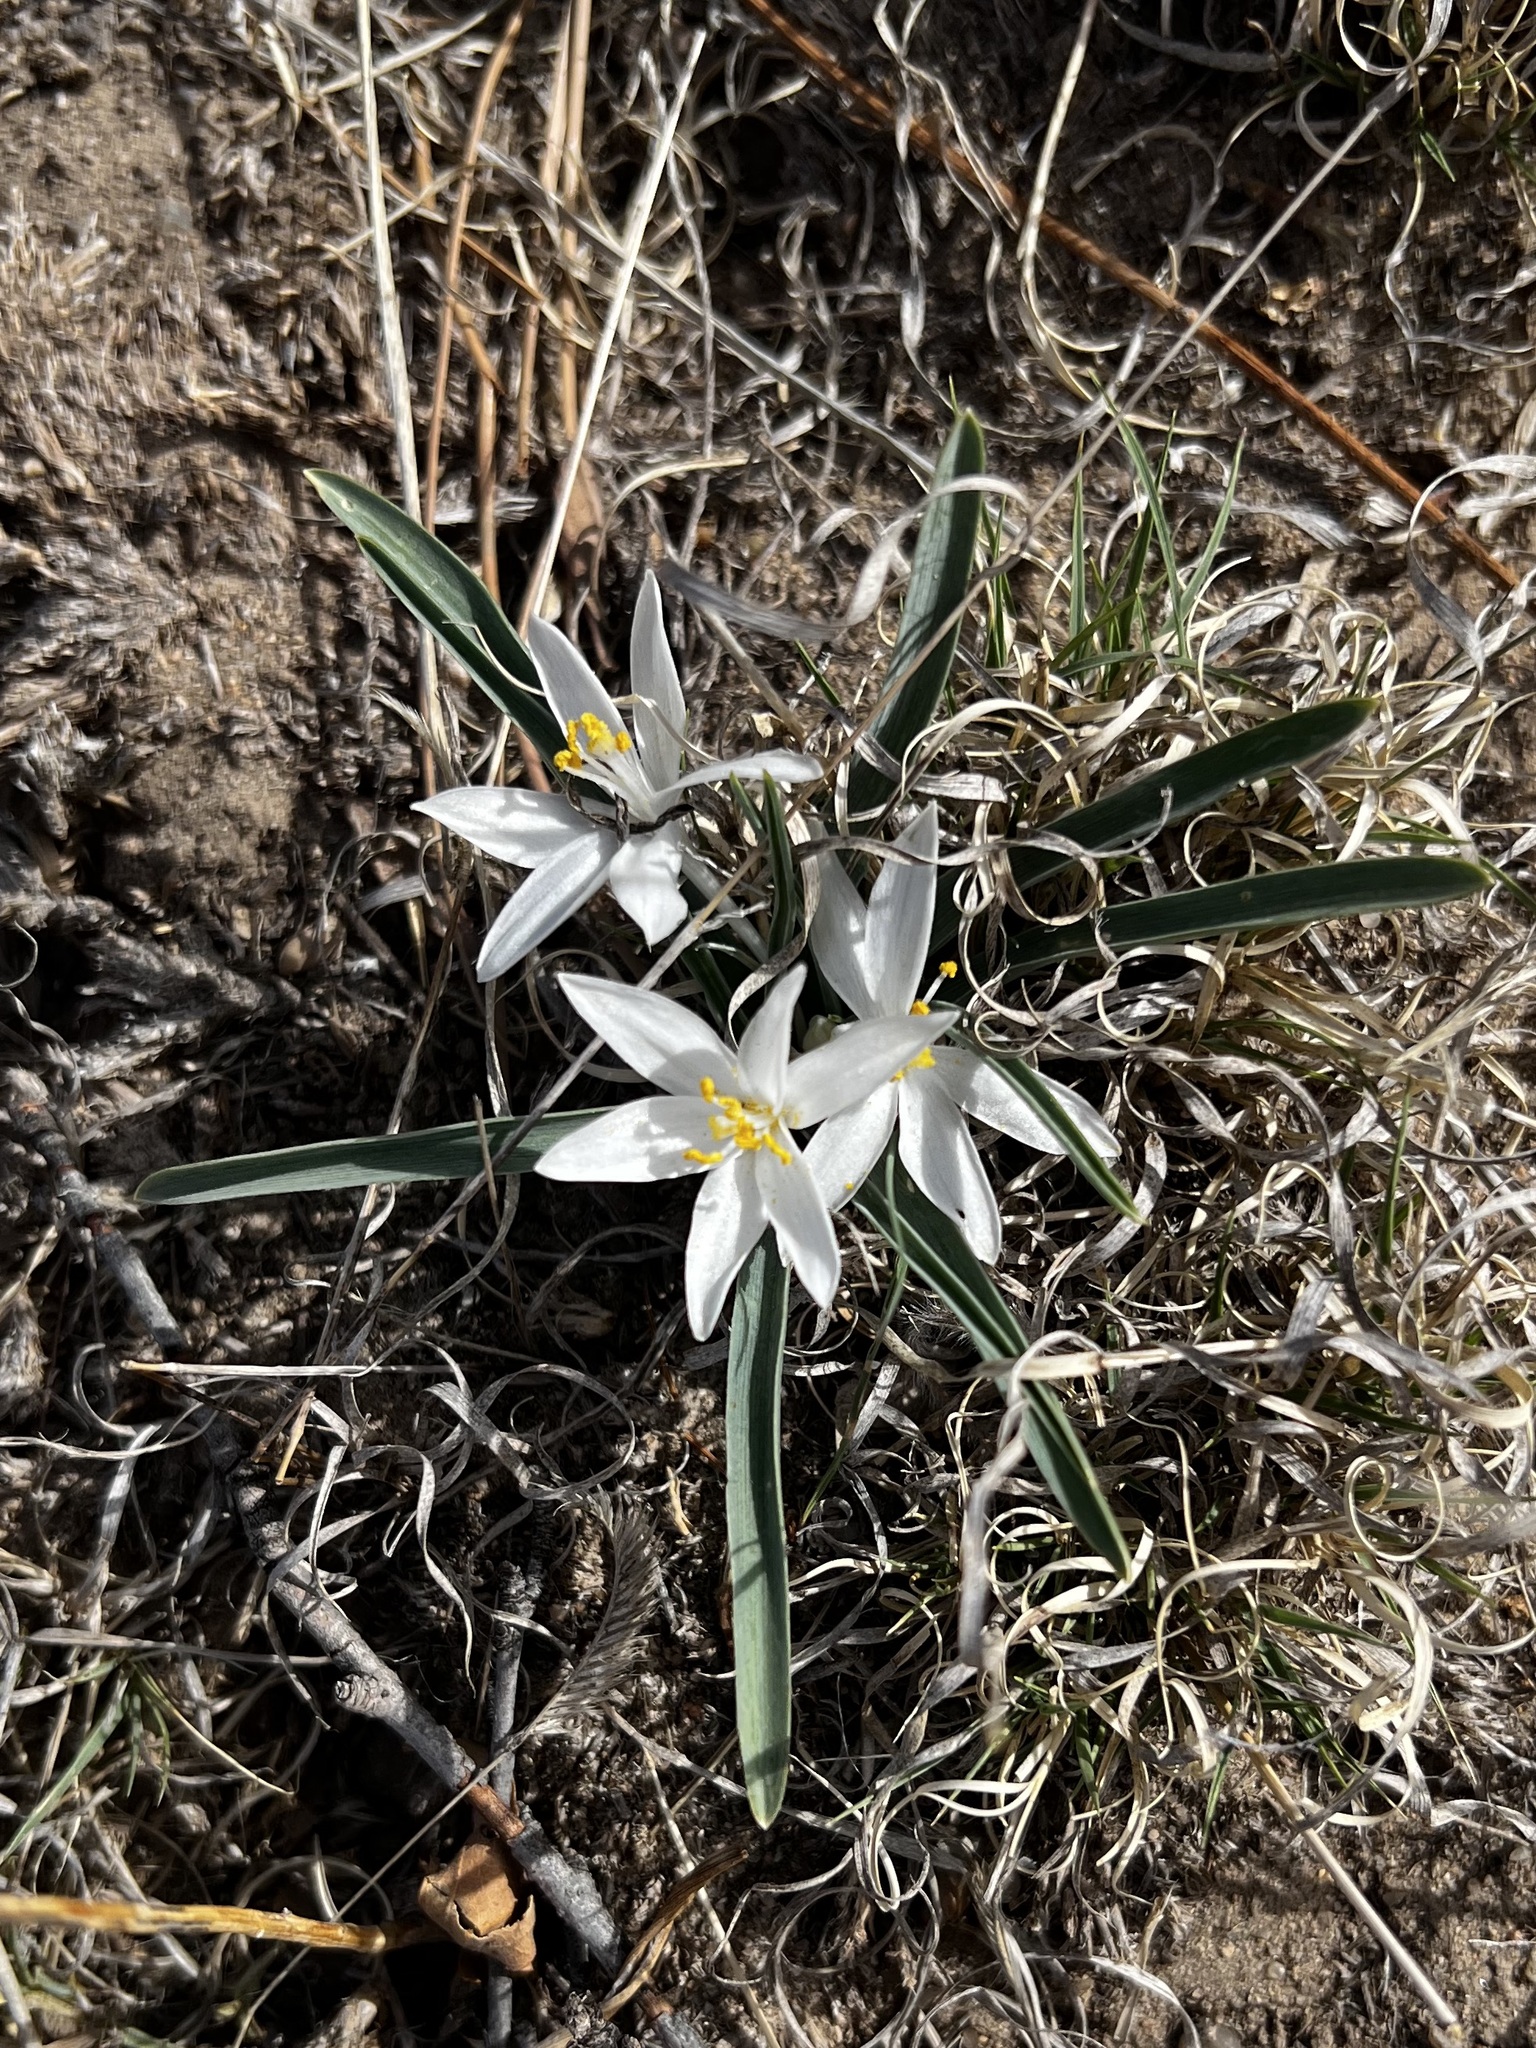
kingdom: Plantae
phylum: Tracheophyta
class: Liliopsida
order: Asparagales
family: Asparagaceae
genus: Leucocrinum
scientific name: Leucocrinum montanum
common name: Mountain-lily
